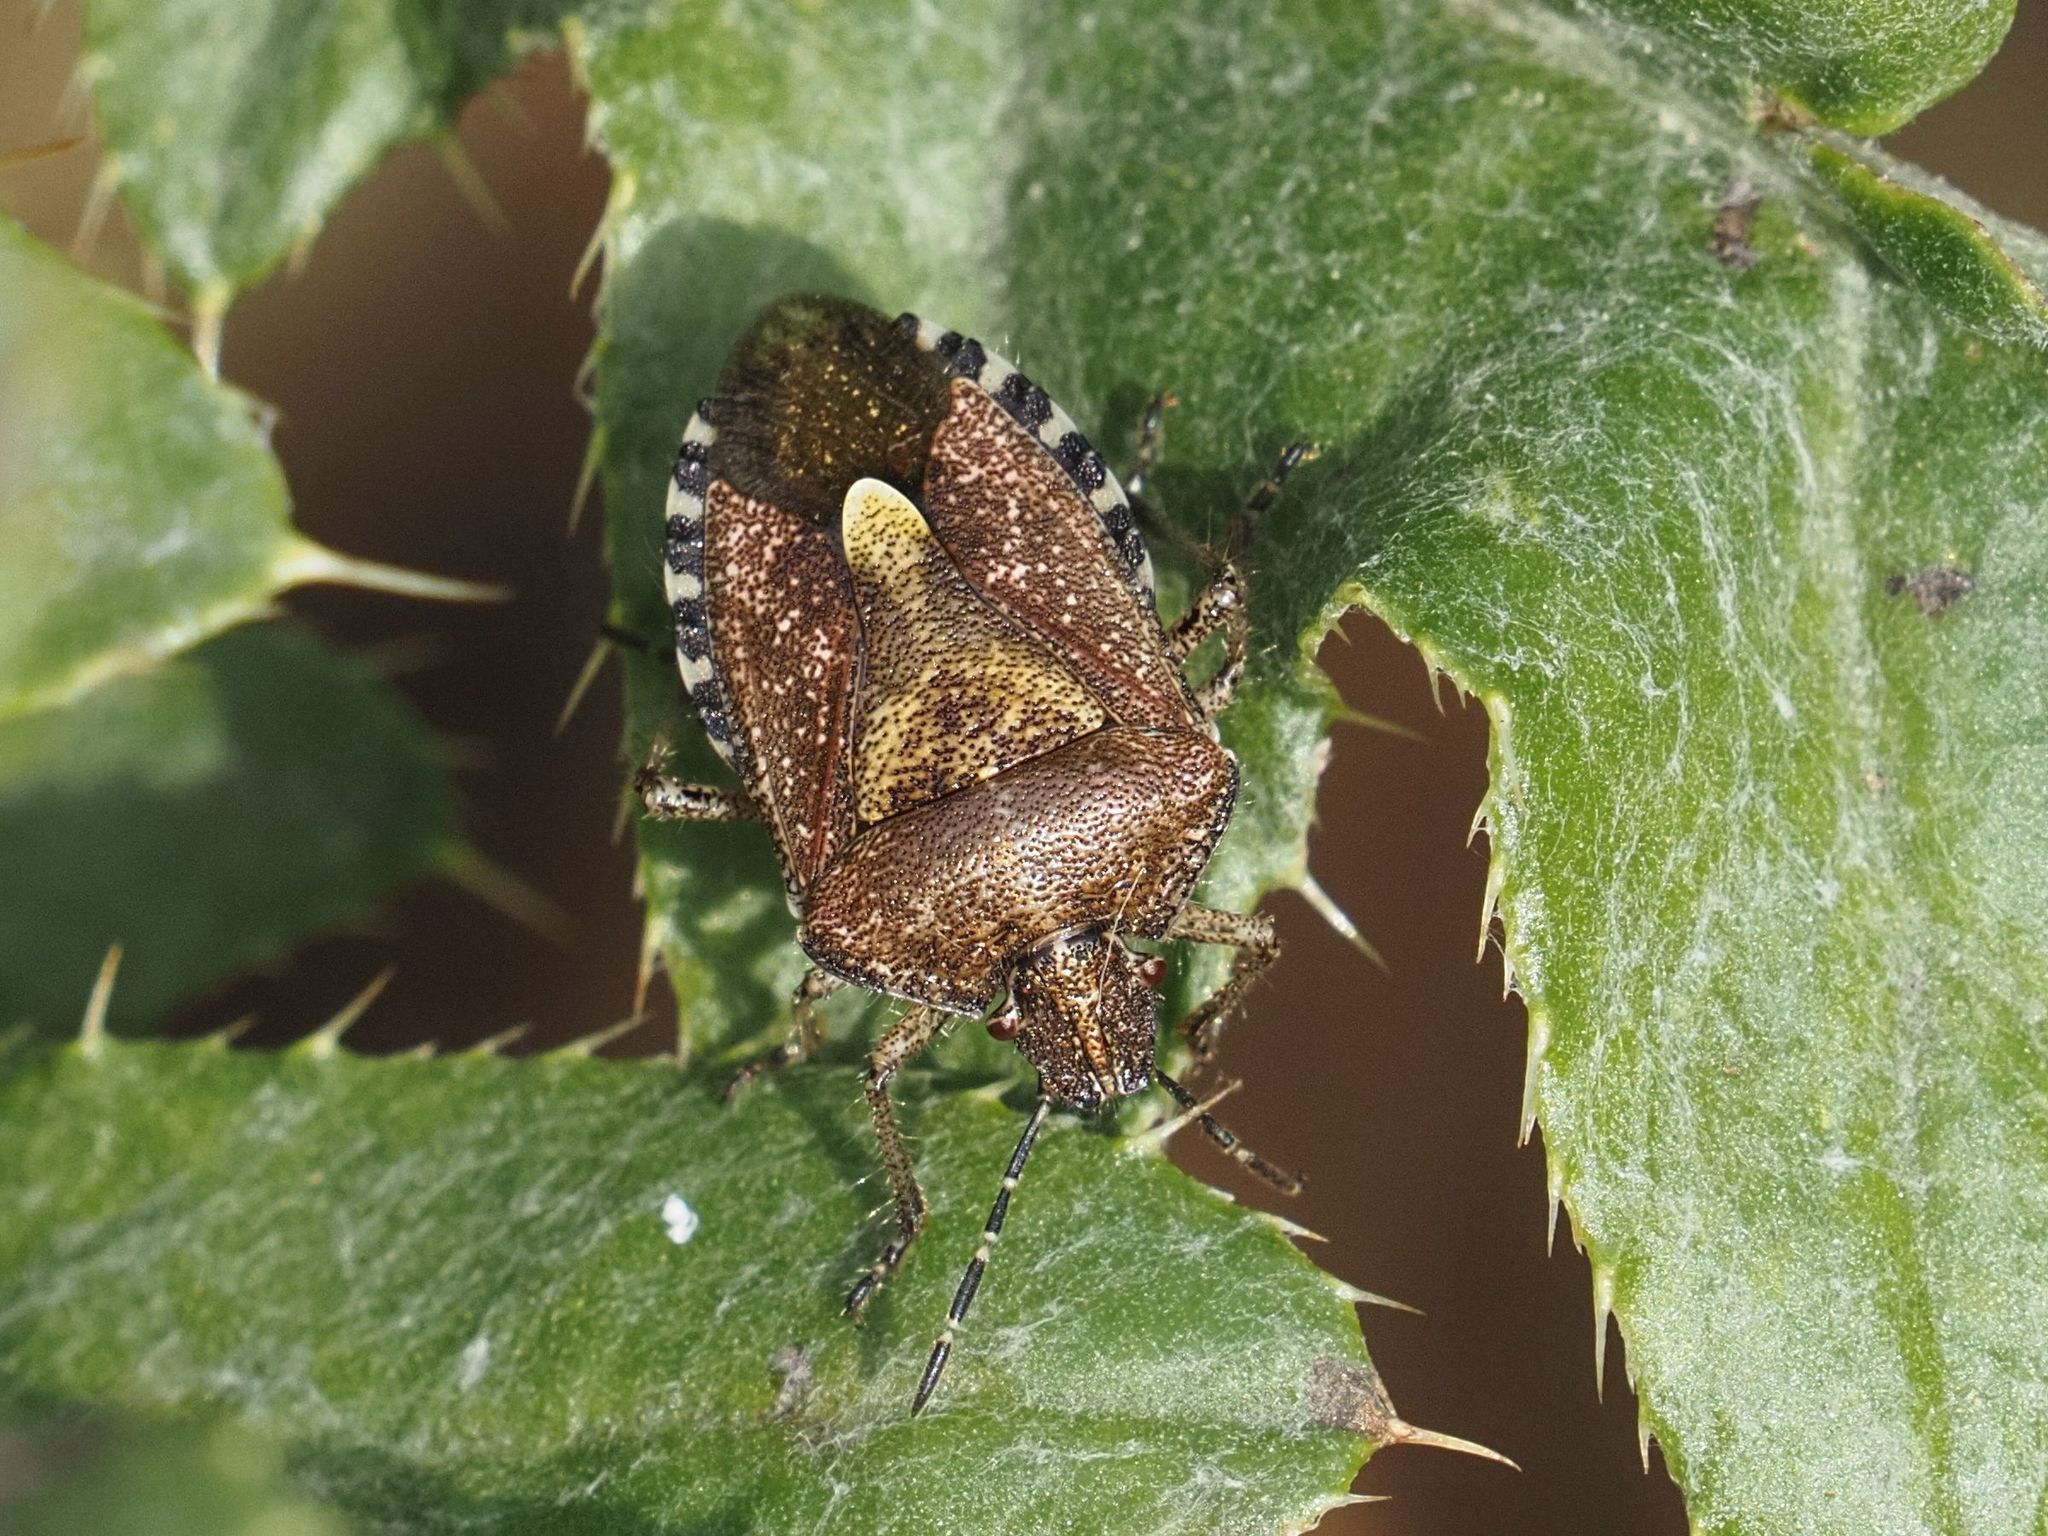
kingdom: Animalia
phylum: Arthropoda
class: Insecta
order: Hemiptera
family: Pentatomidae
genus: Dolycoris
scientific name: Dolycoris baccarum
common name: Sloe bug
